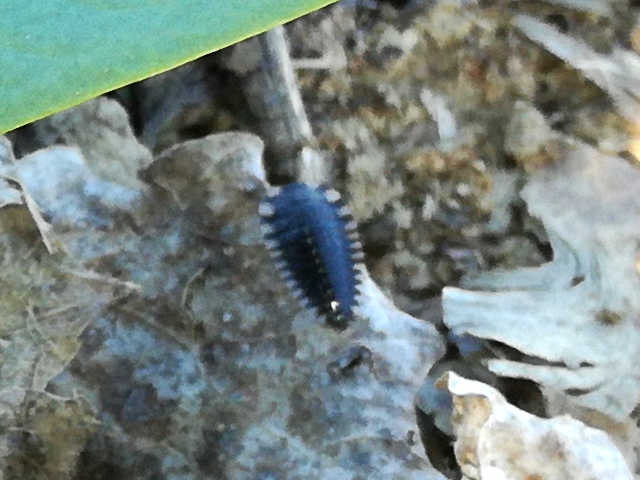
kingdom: Animalia
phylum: Arthropoda
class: Insecta
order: Coleoptera
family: Staphylinidae
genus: Oiceoptoma
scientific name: Oiceoptoma thoracicum
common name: Red-breasted carrion beetle
